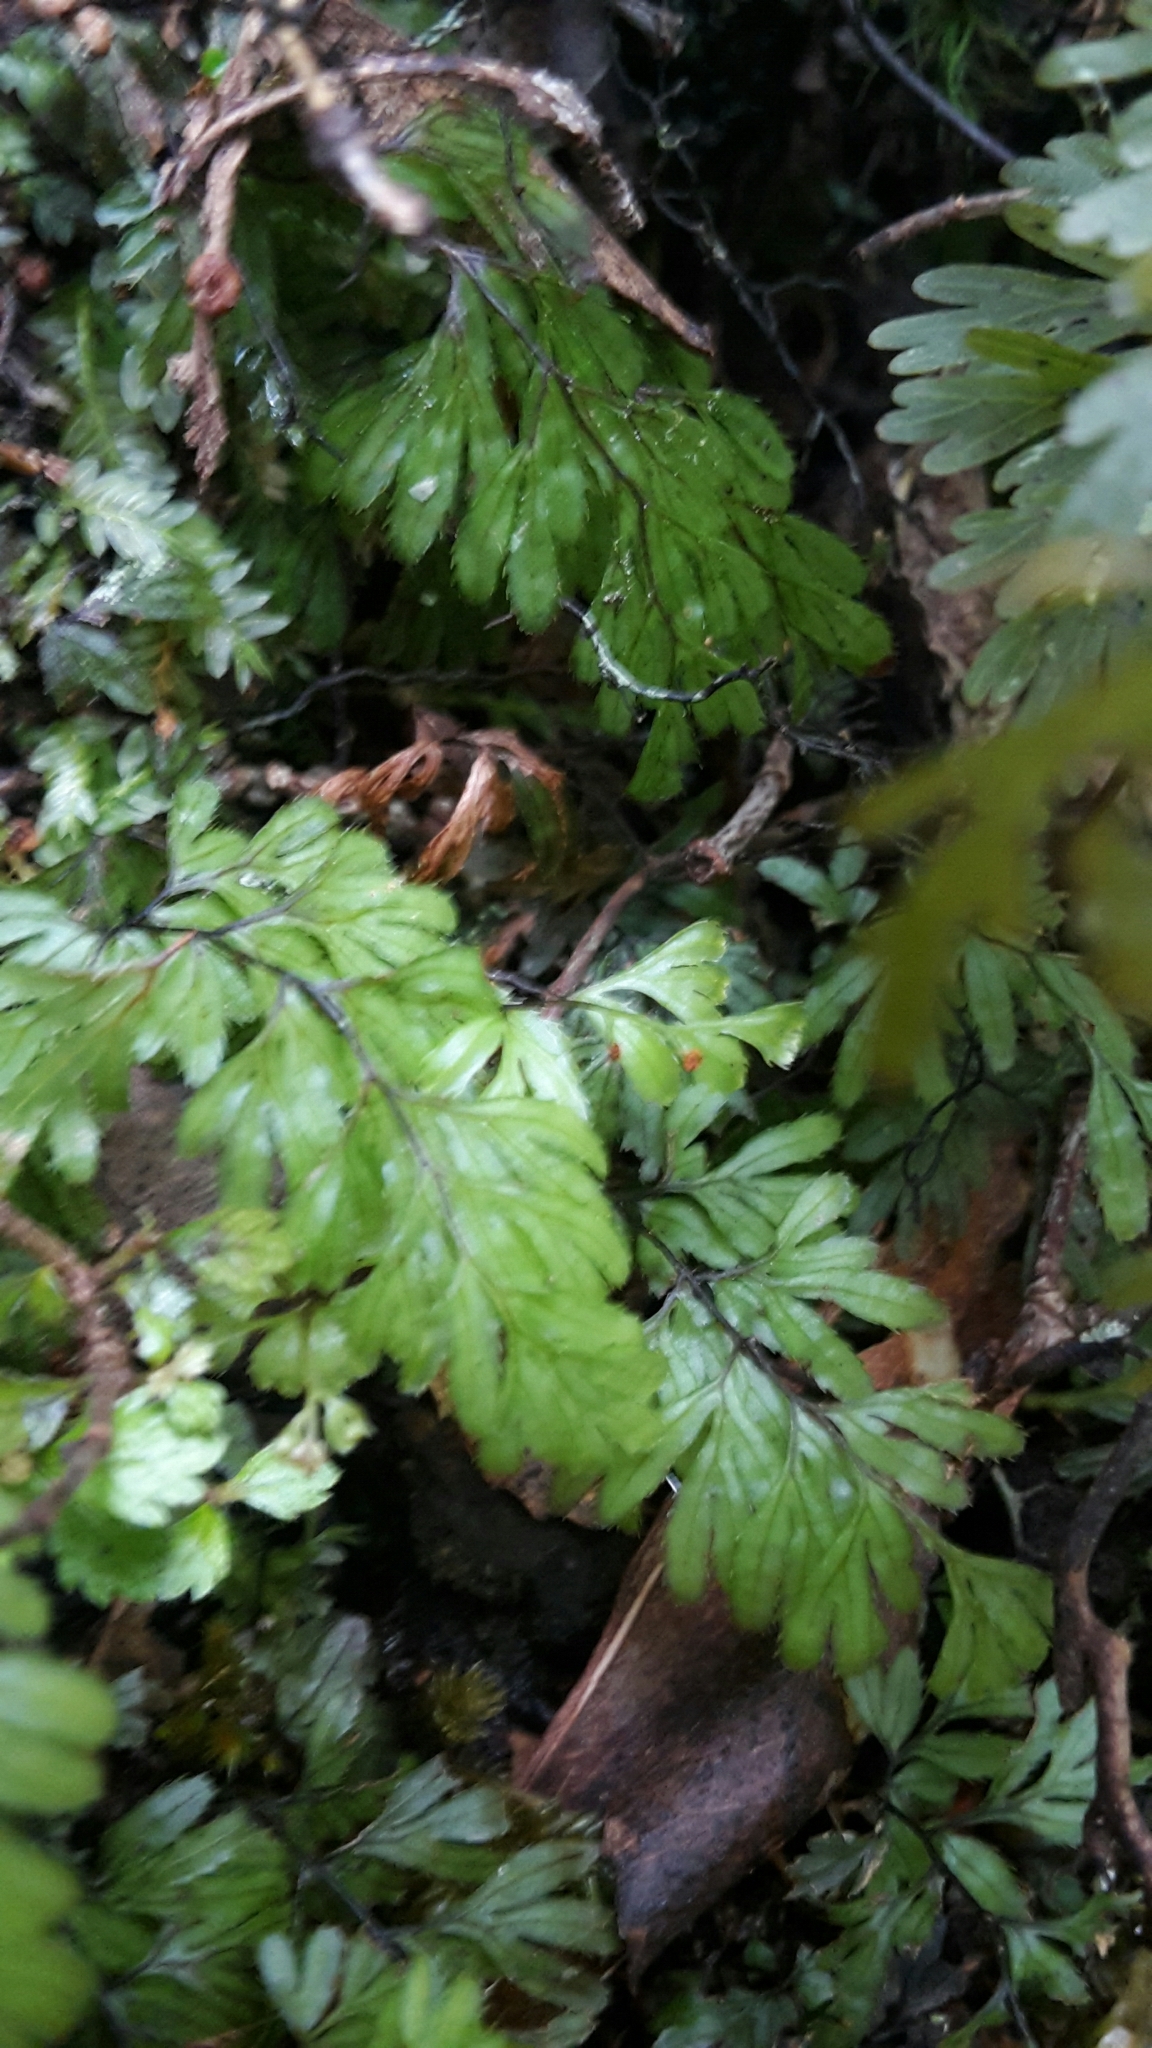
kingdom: Plantae
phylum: Tracheophyta
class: Polypodiopsida
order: Hymenophyllales
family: Hymenophyllaceae
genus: Hymenophyllum
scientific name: Hymenophyllum revolutum
